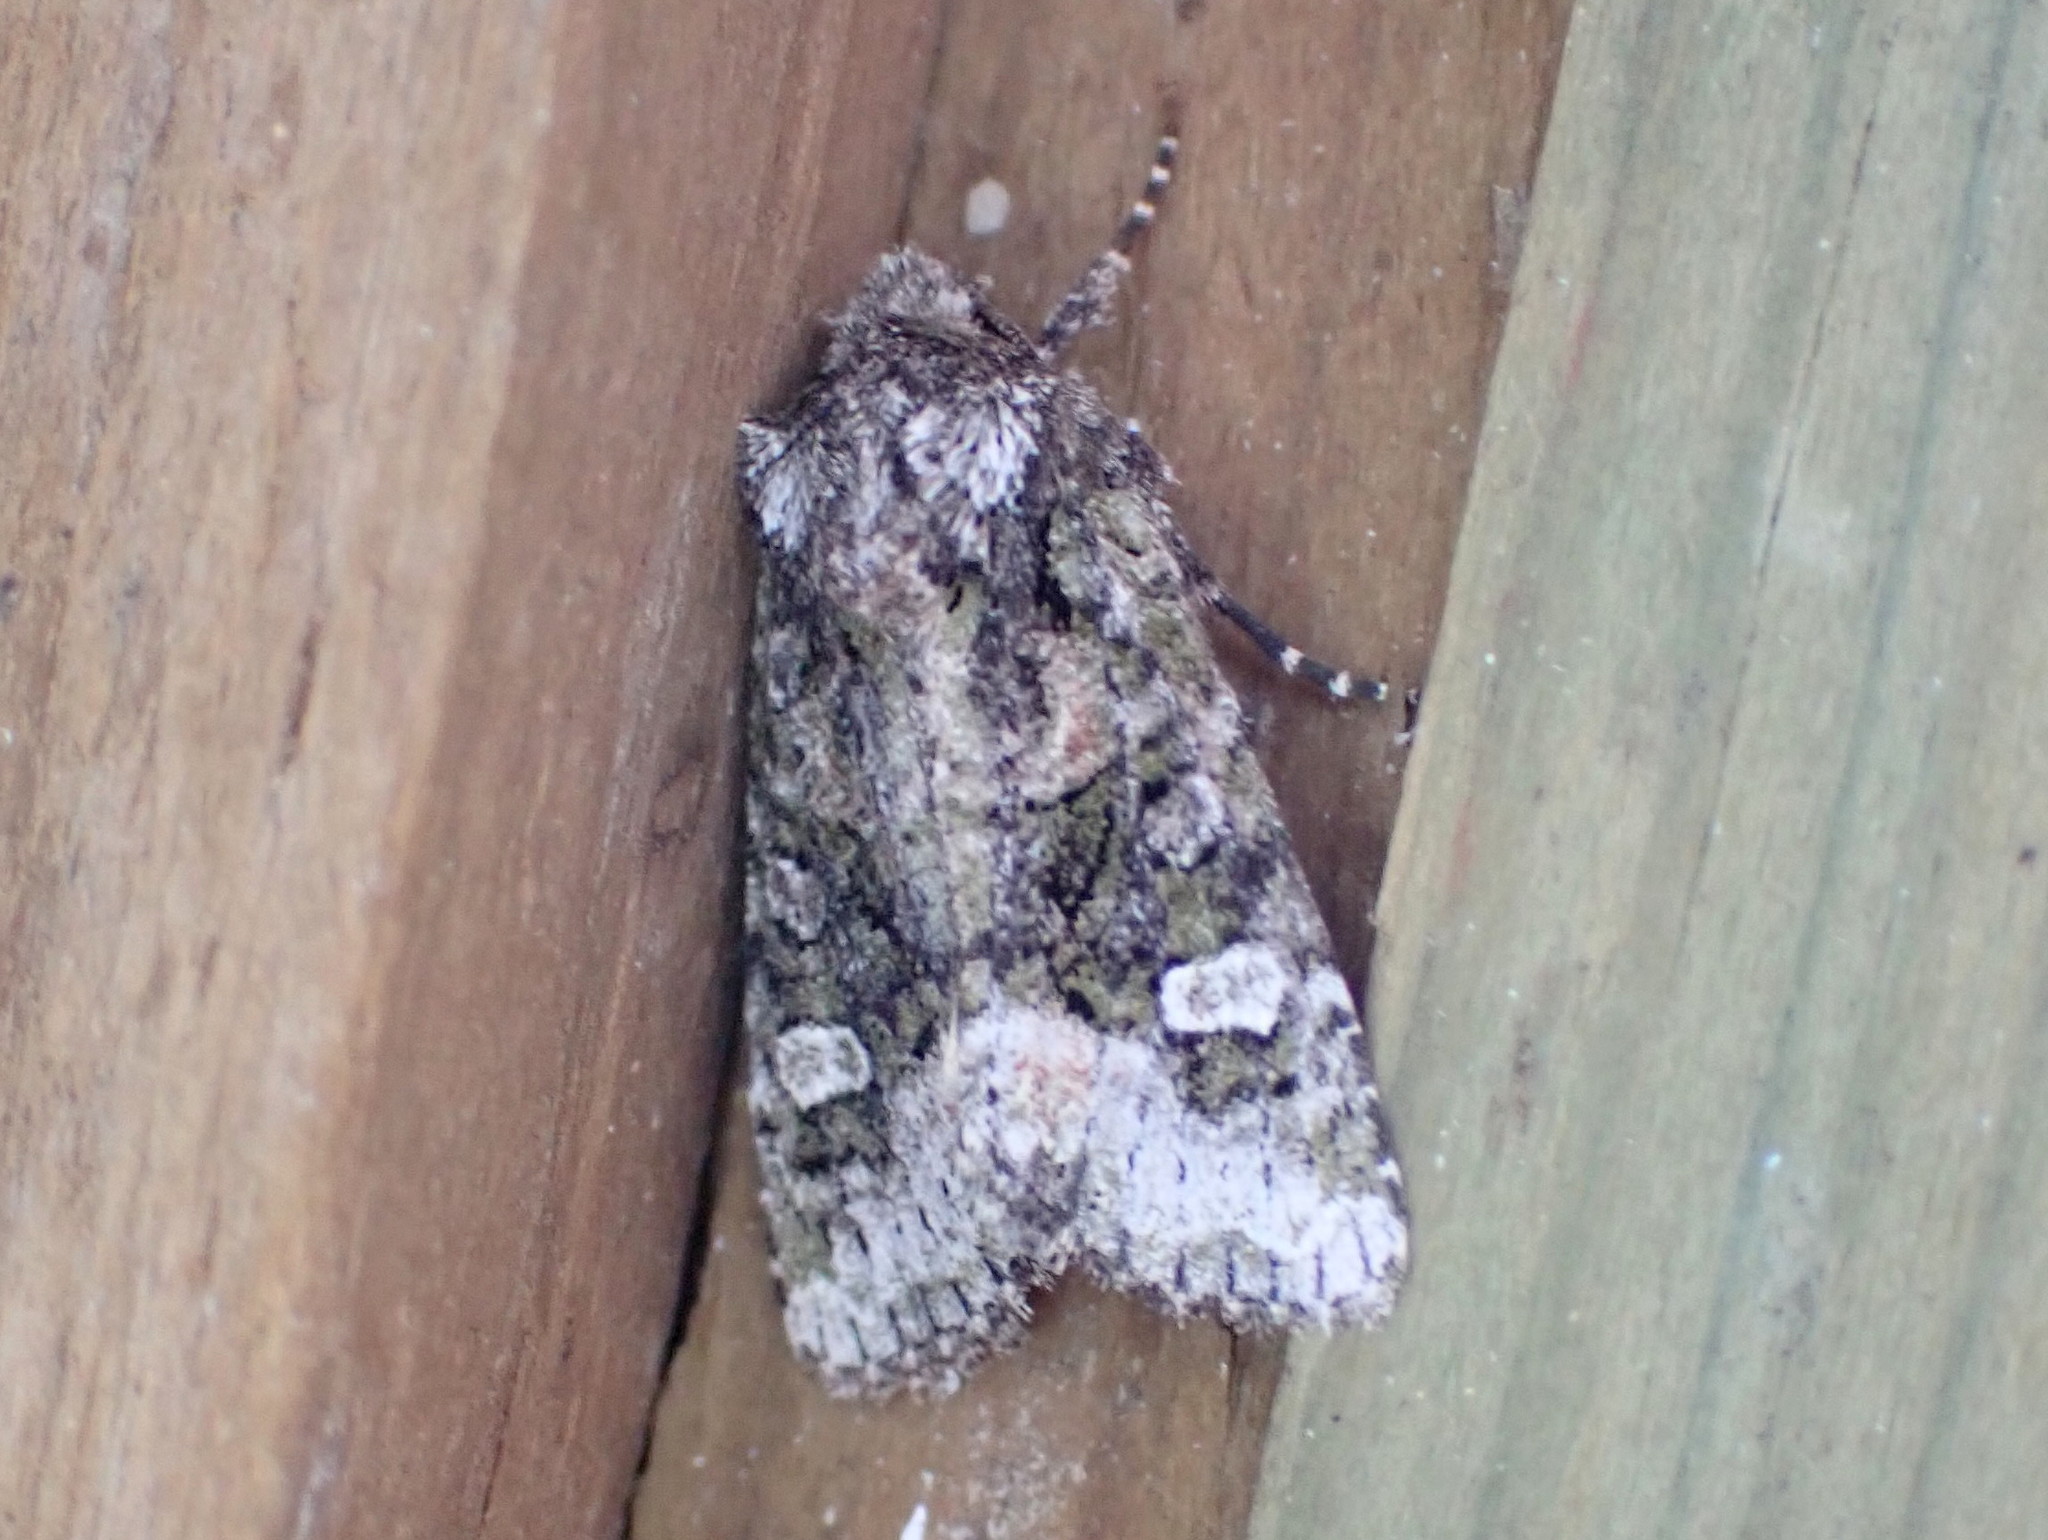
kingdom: Animalia
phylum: Arthropoda
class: Insecta
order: Lepidoptera
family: Noctuidae
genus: Lacinipolia
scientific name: Lacinipolia olivacea
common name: Olive arches moth
